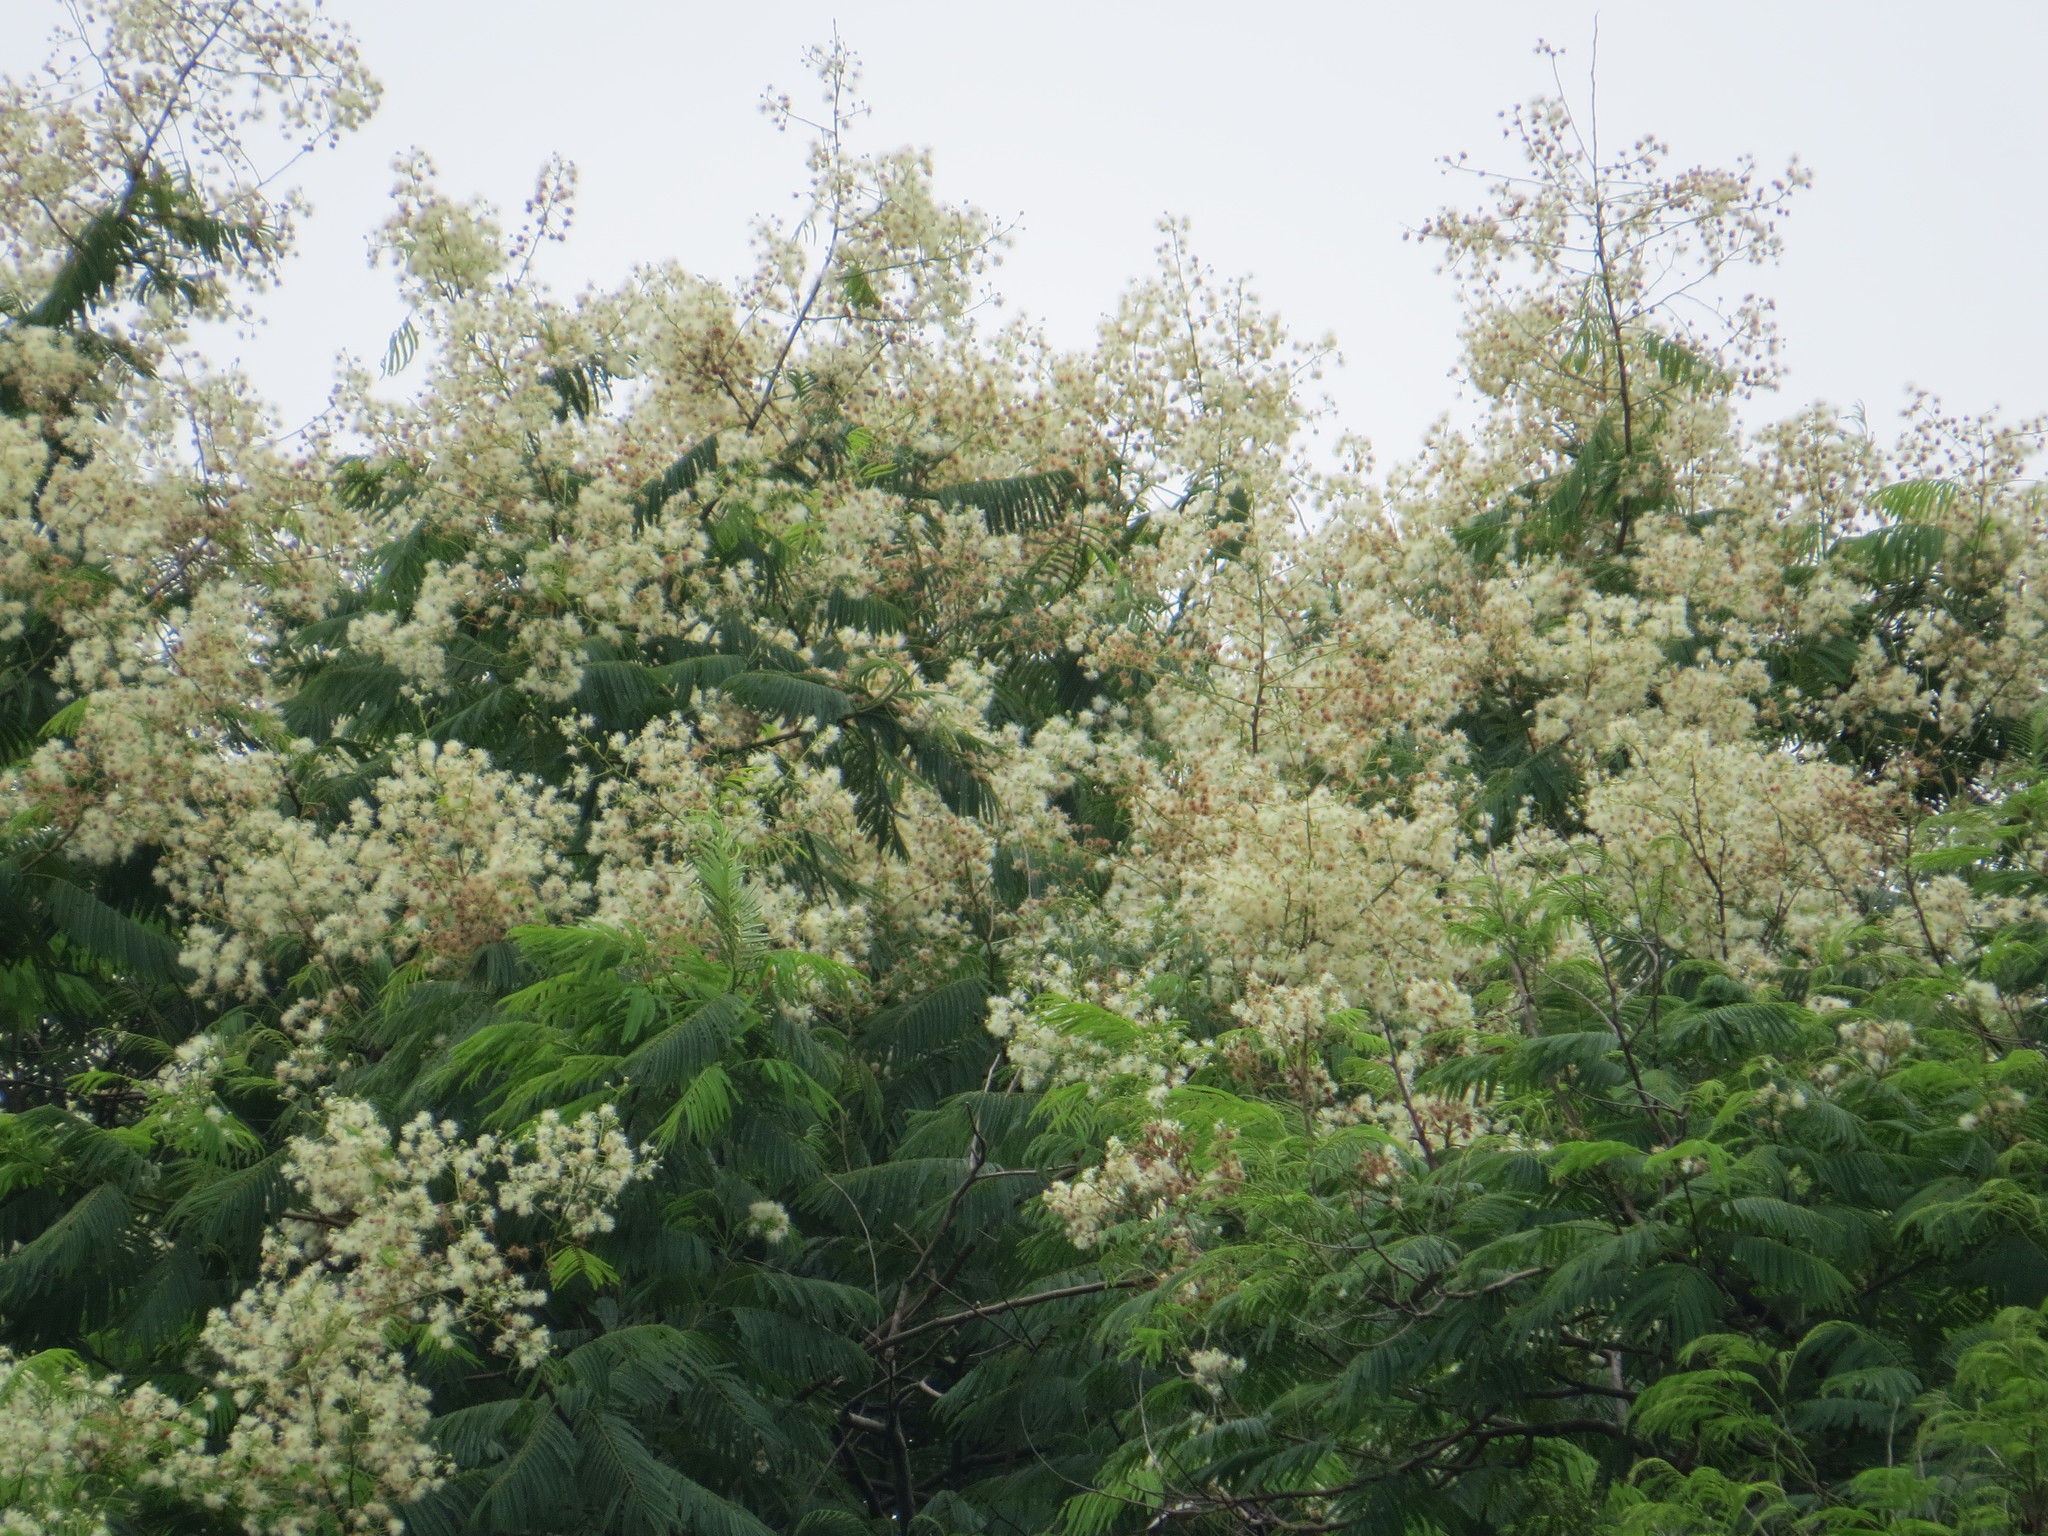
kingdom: Plantae
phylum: Tracheophyta
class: Magnoliopsida
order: Fabales
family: Fabaceae
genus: Anadenanthera
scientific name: Anadenanthera colubrina
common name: Curupay
